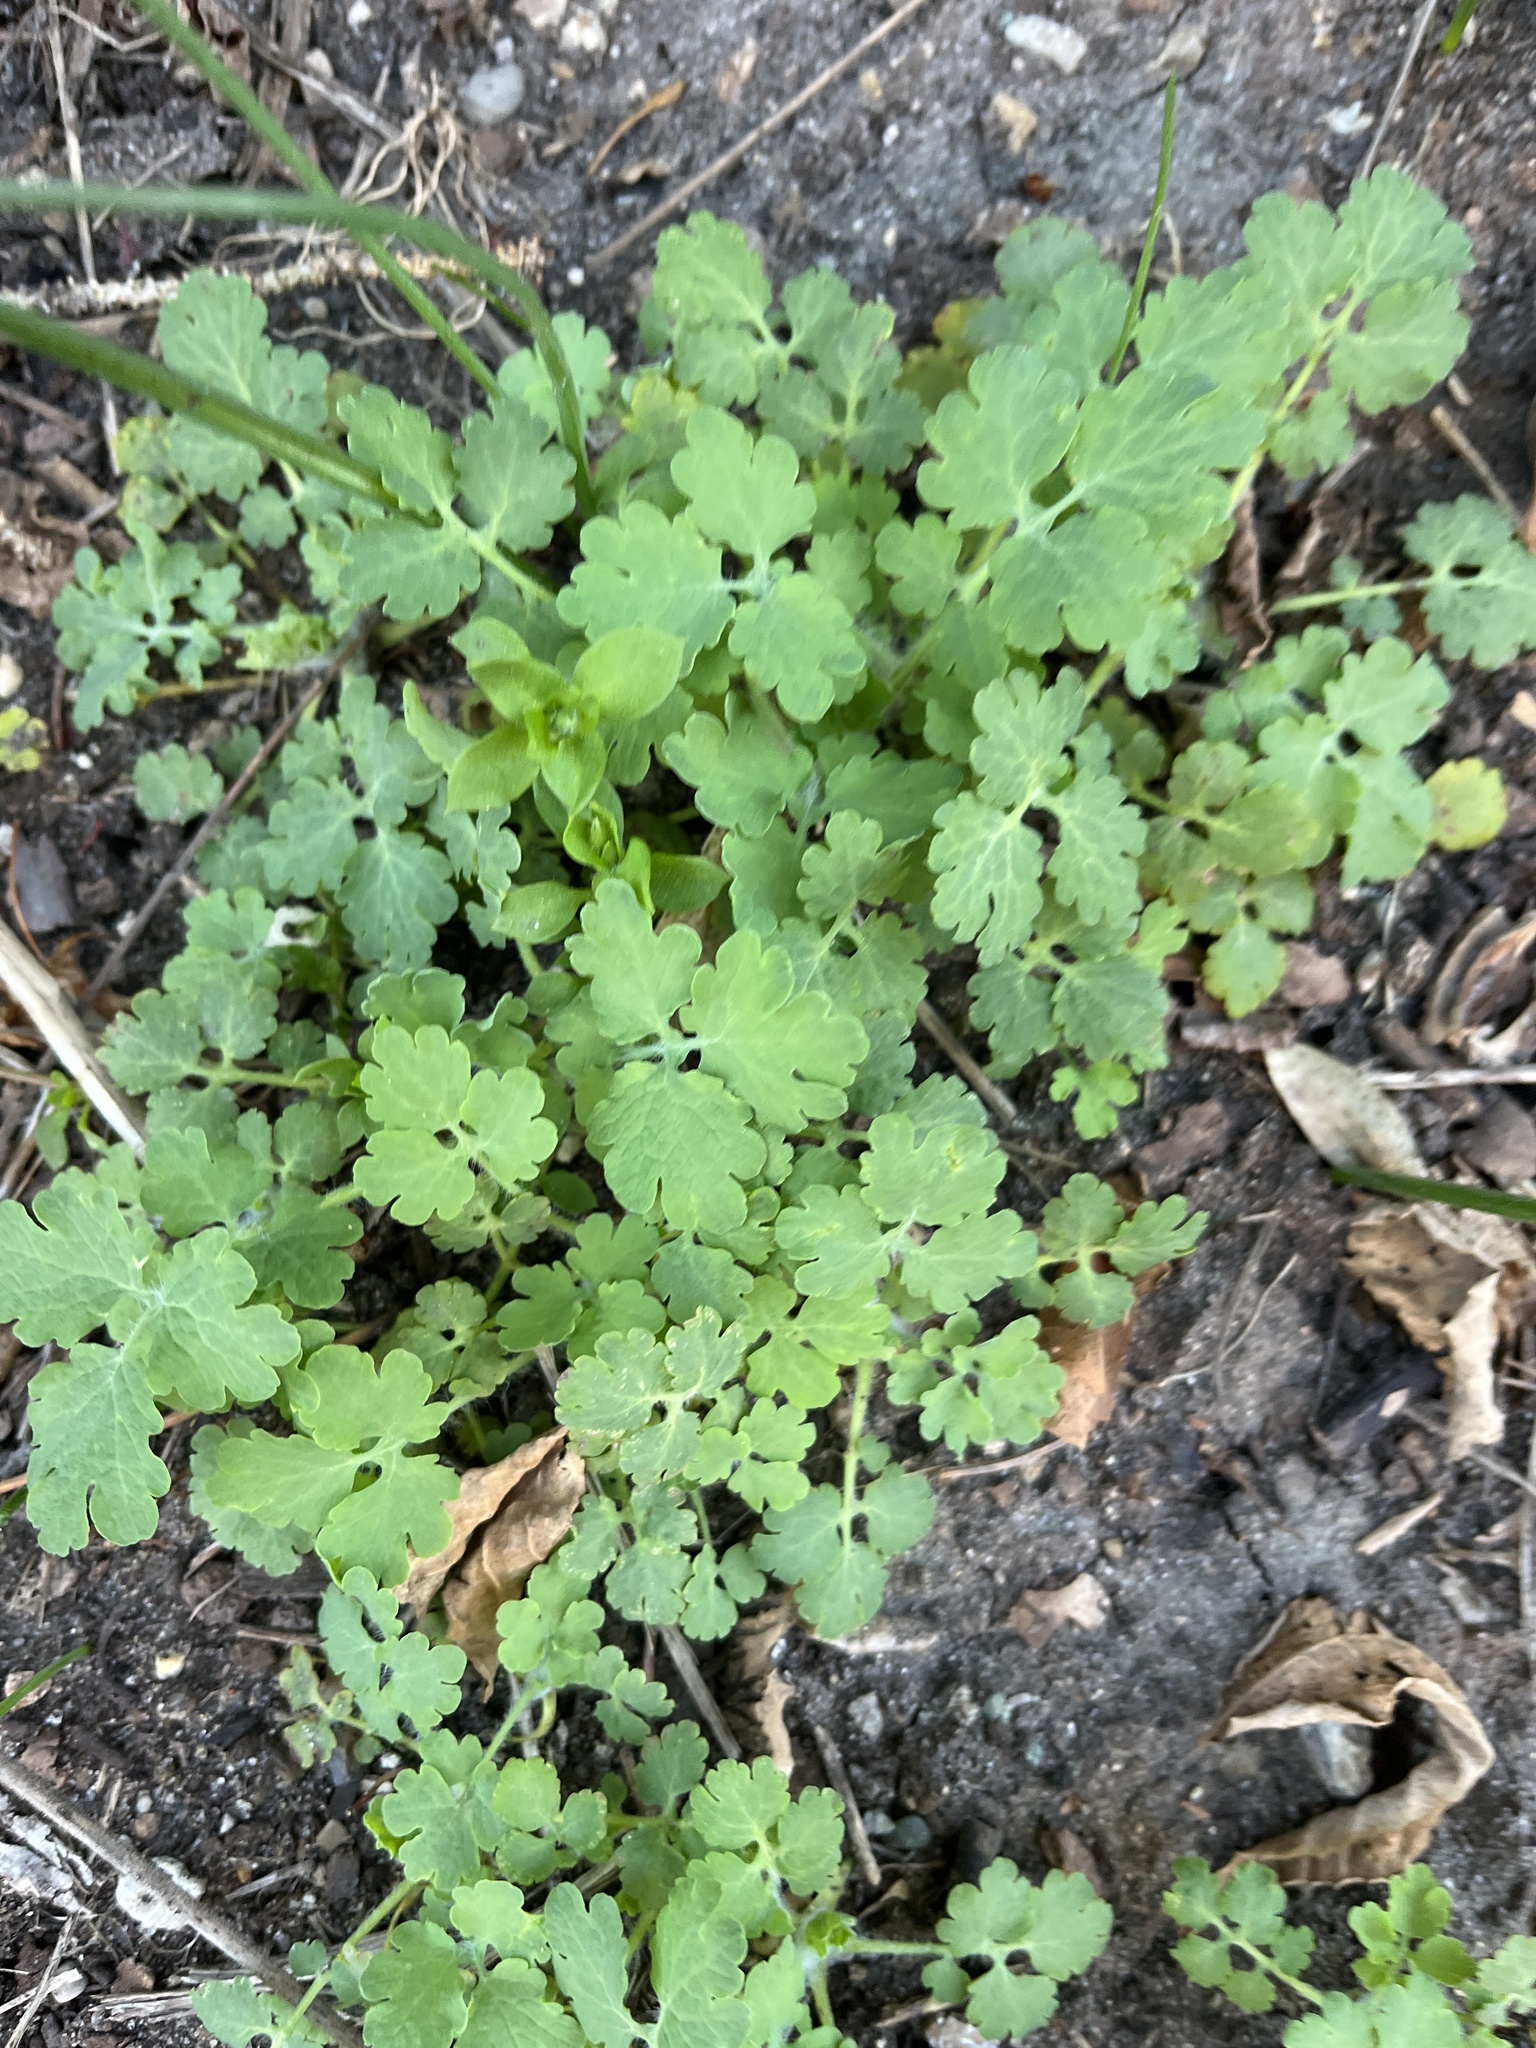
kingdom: Plantae
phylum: Tracheophyta
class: Magnoliopsida
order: Ranunculales
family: Papaveraceae
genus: Chelidonium
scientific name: Chelidonium majus
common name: Greater celandine
